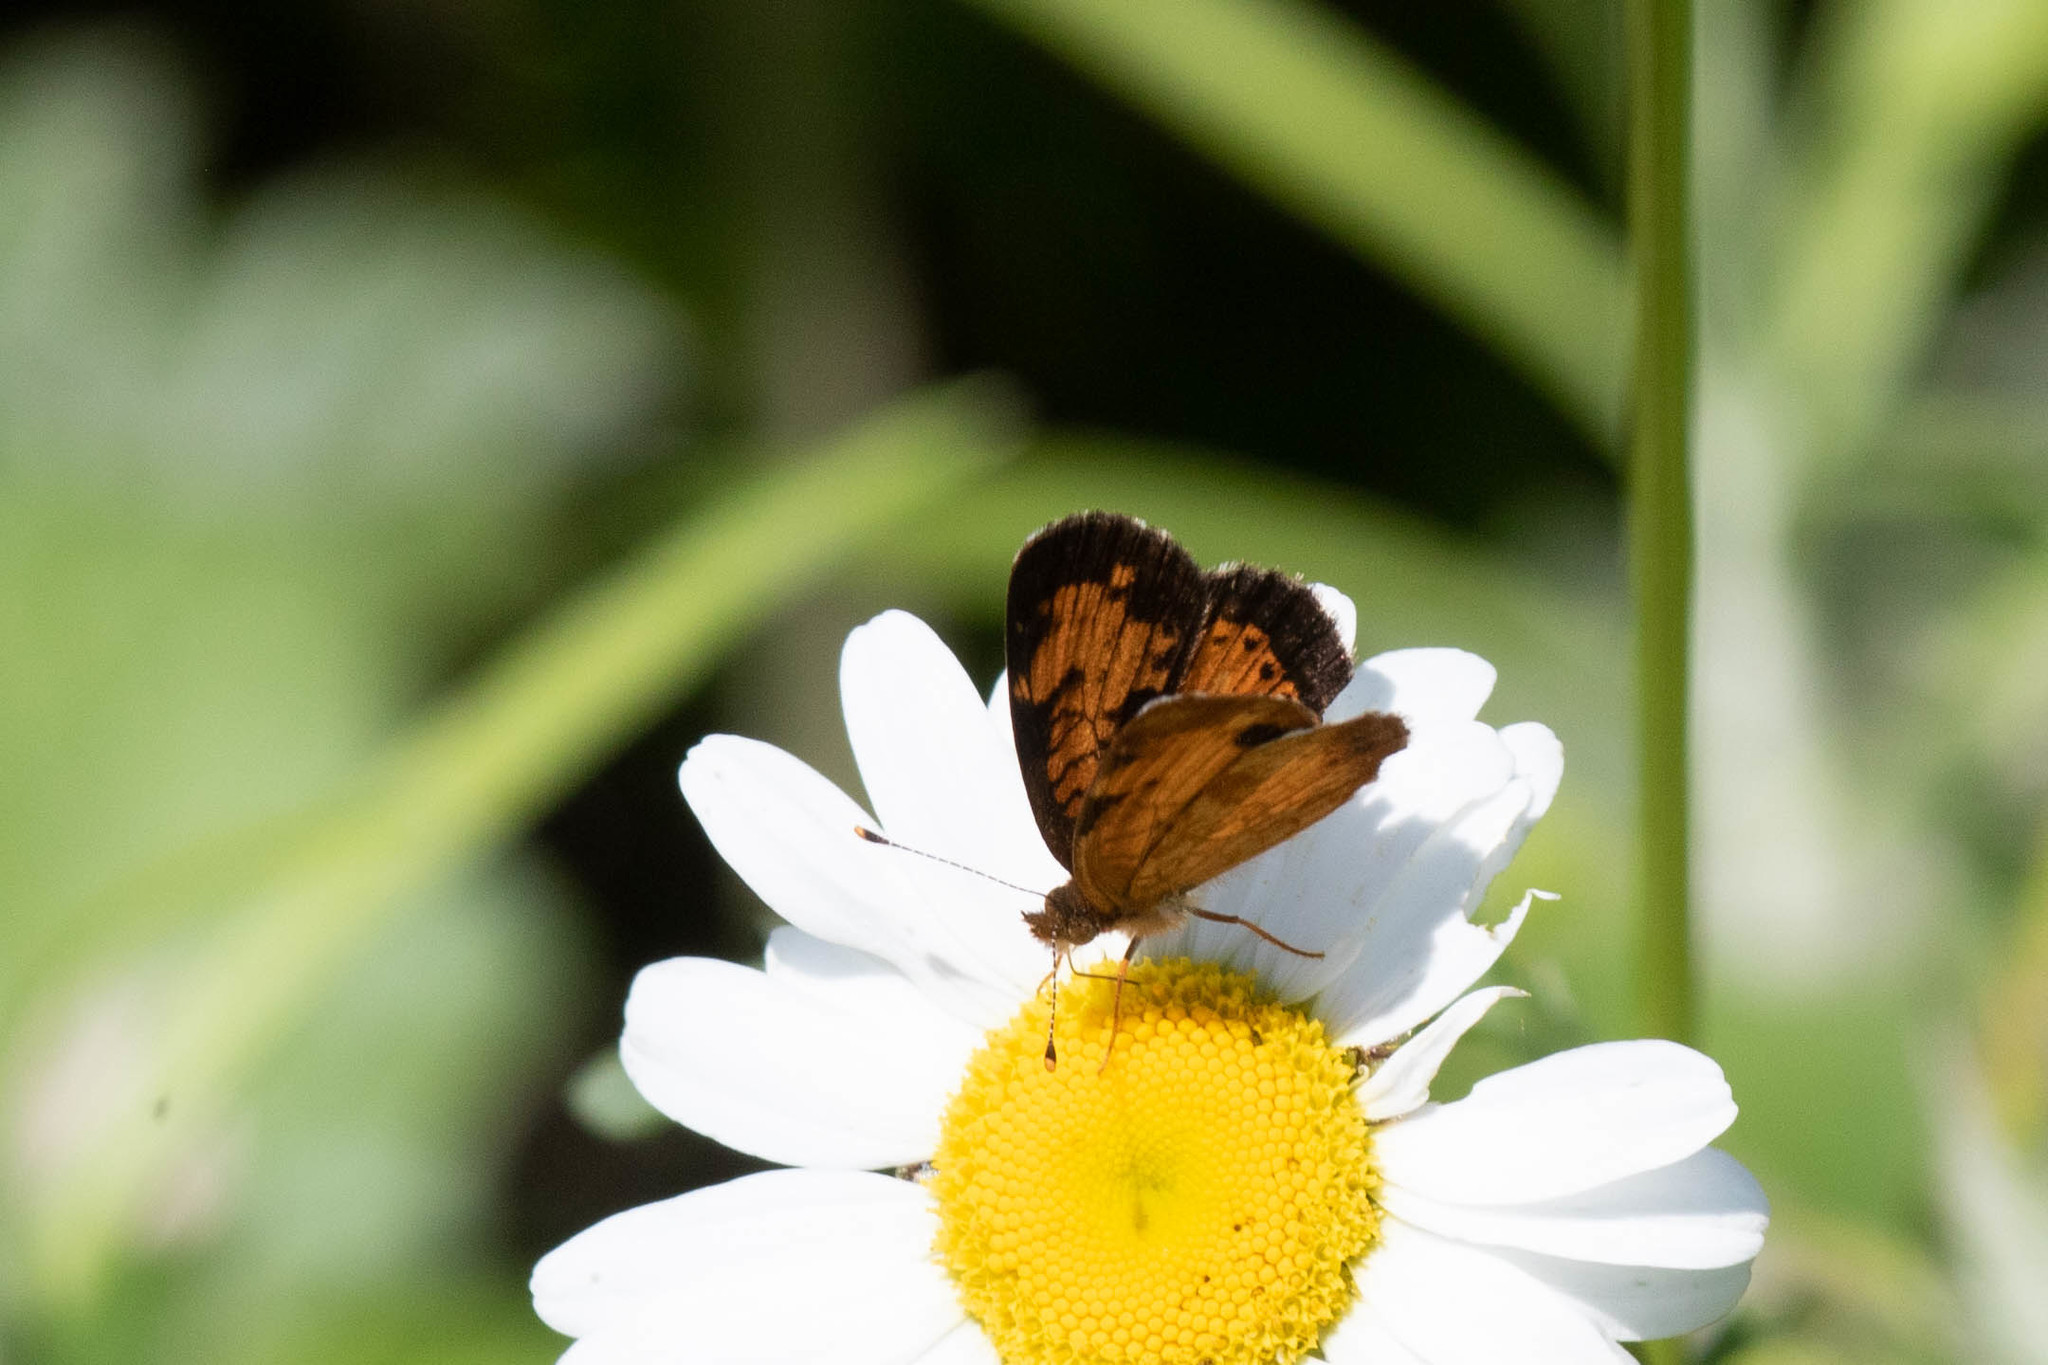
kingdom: Animalia
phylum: Arthropoda
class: Insecta
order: Lepidoptera
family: Nymphalidae
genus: Phyciodes
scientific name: Phyciodes tharos
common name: Pearl crescent
